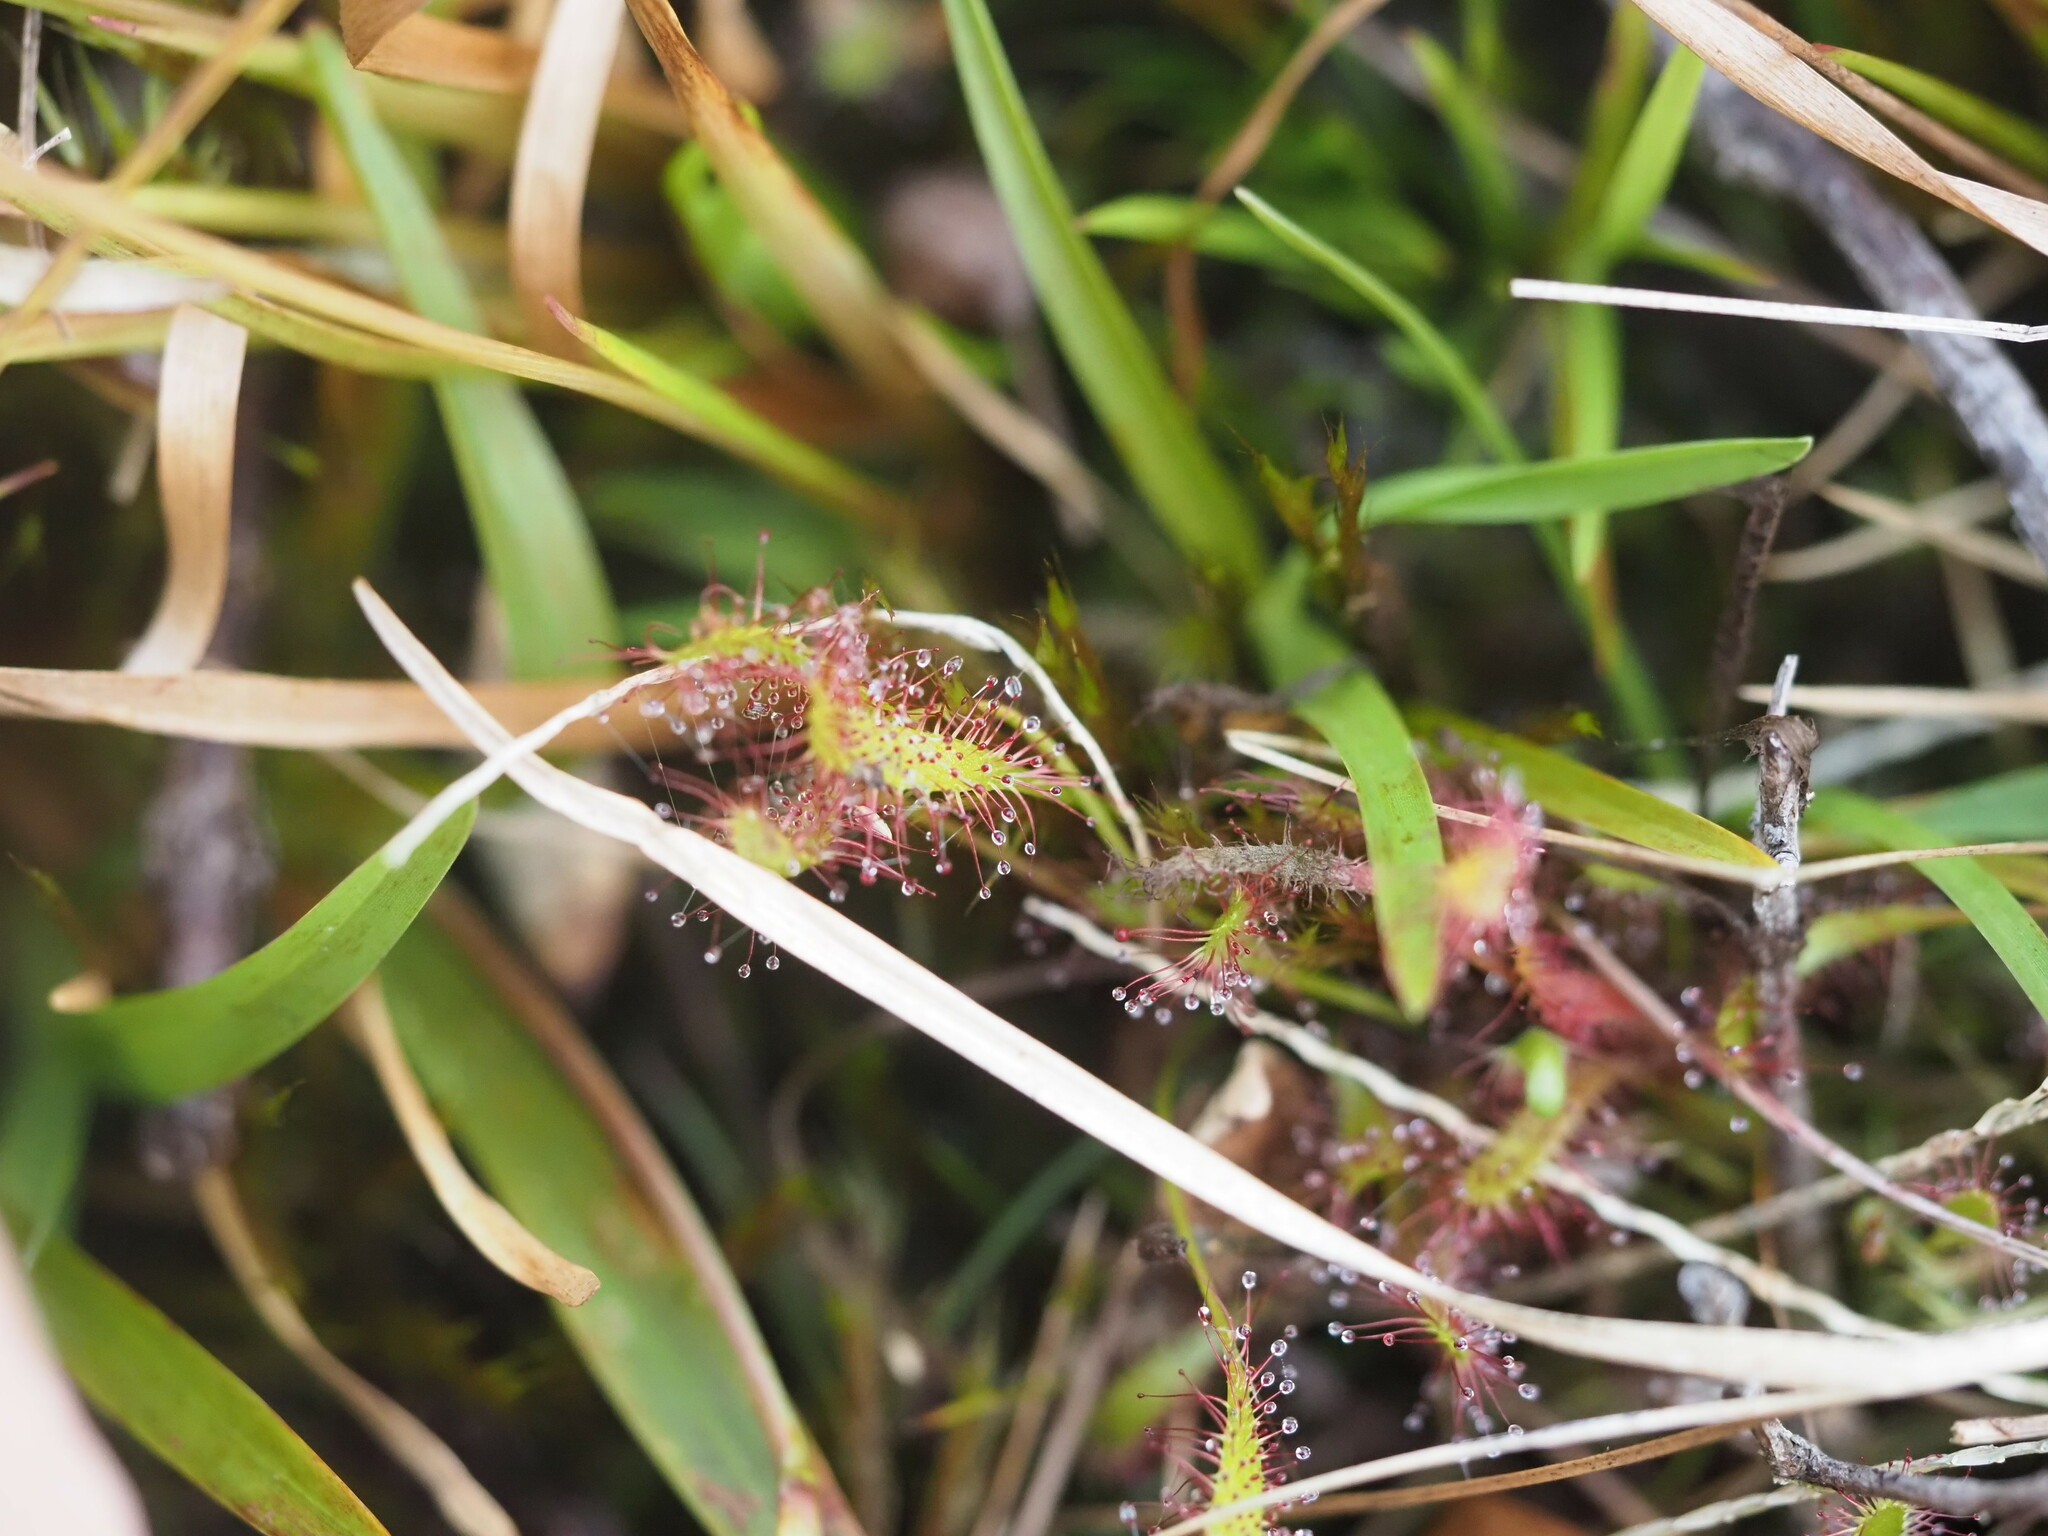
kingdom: Plantae
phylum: Tracheophyta
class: Magnoliopsida
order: Caryophyllales
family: Droseraceae
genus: Drosera
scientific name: Drosera anglica
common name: Great sundew
